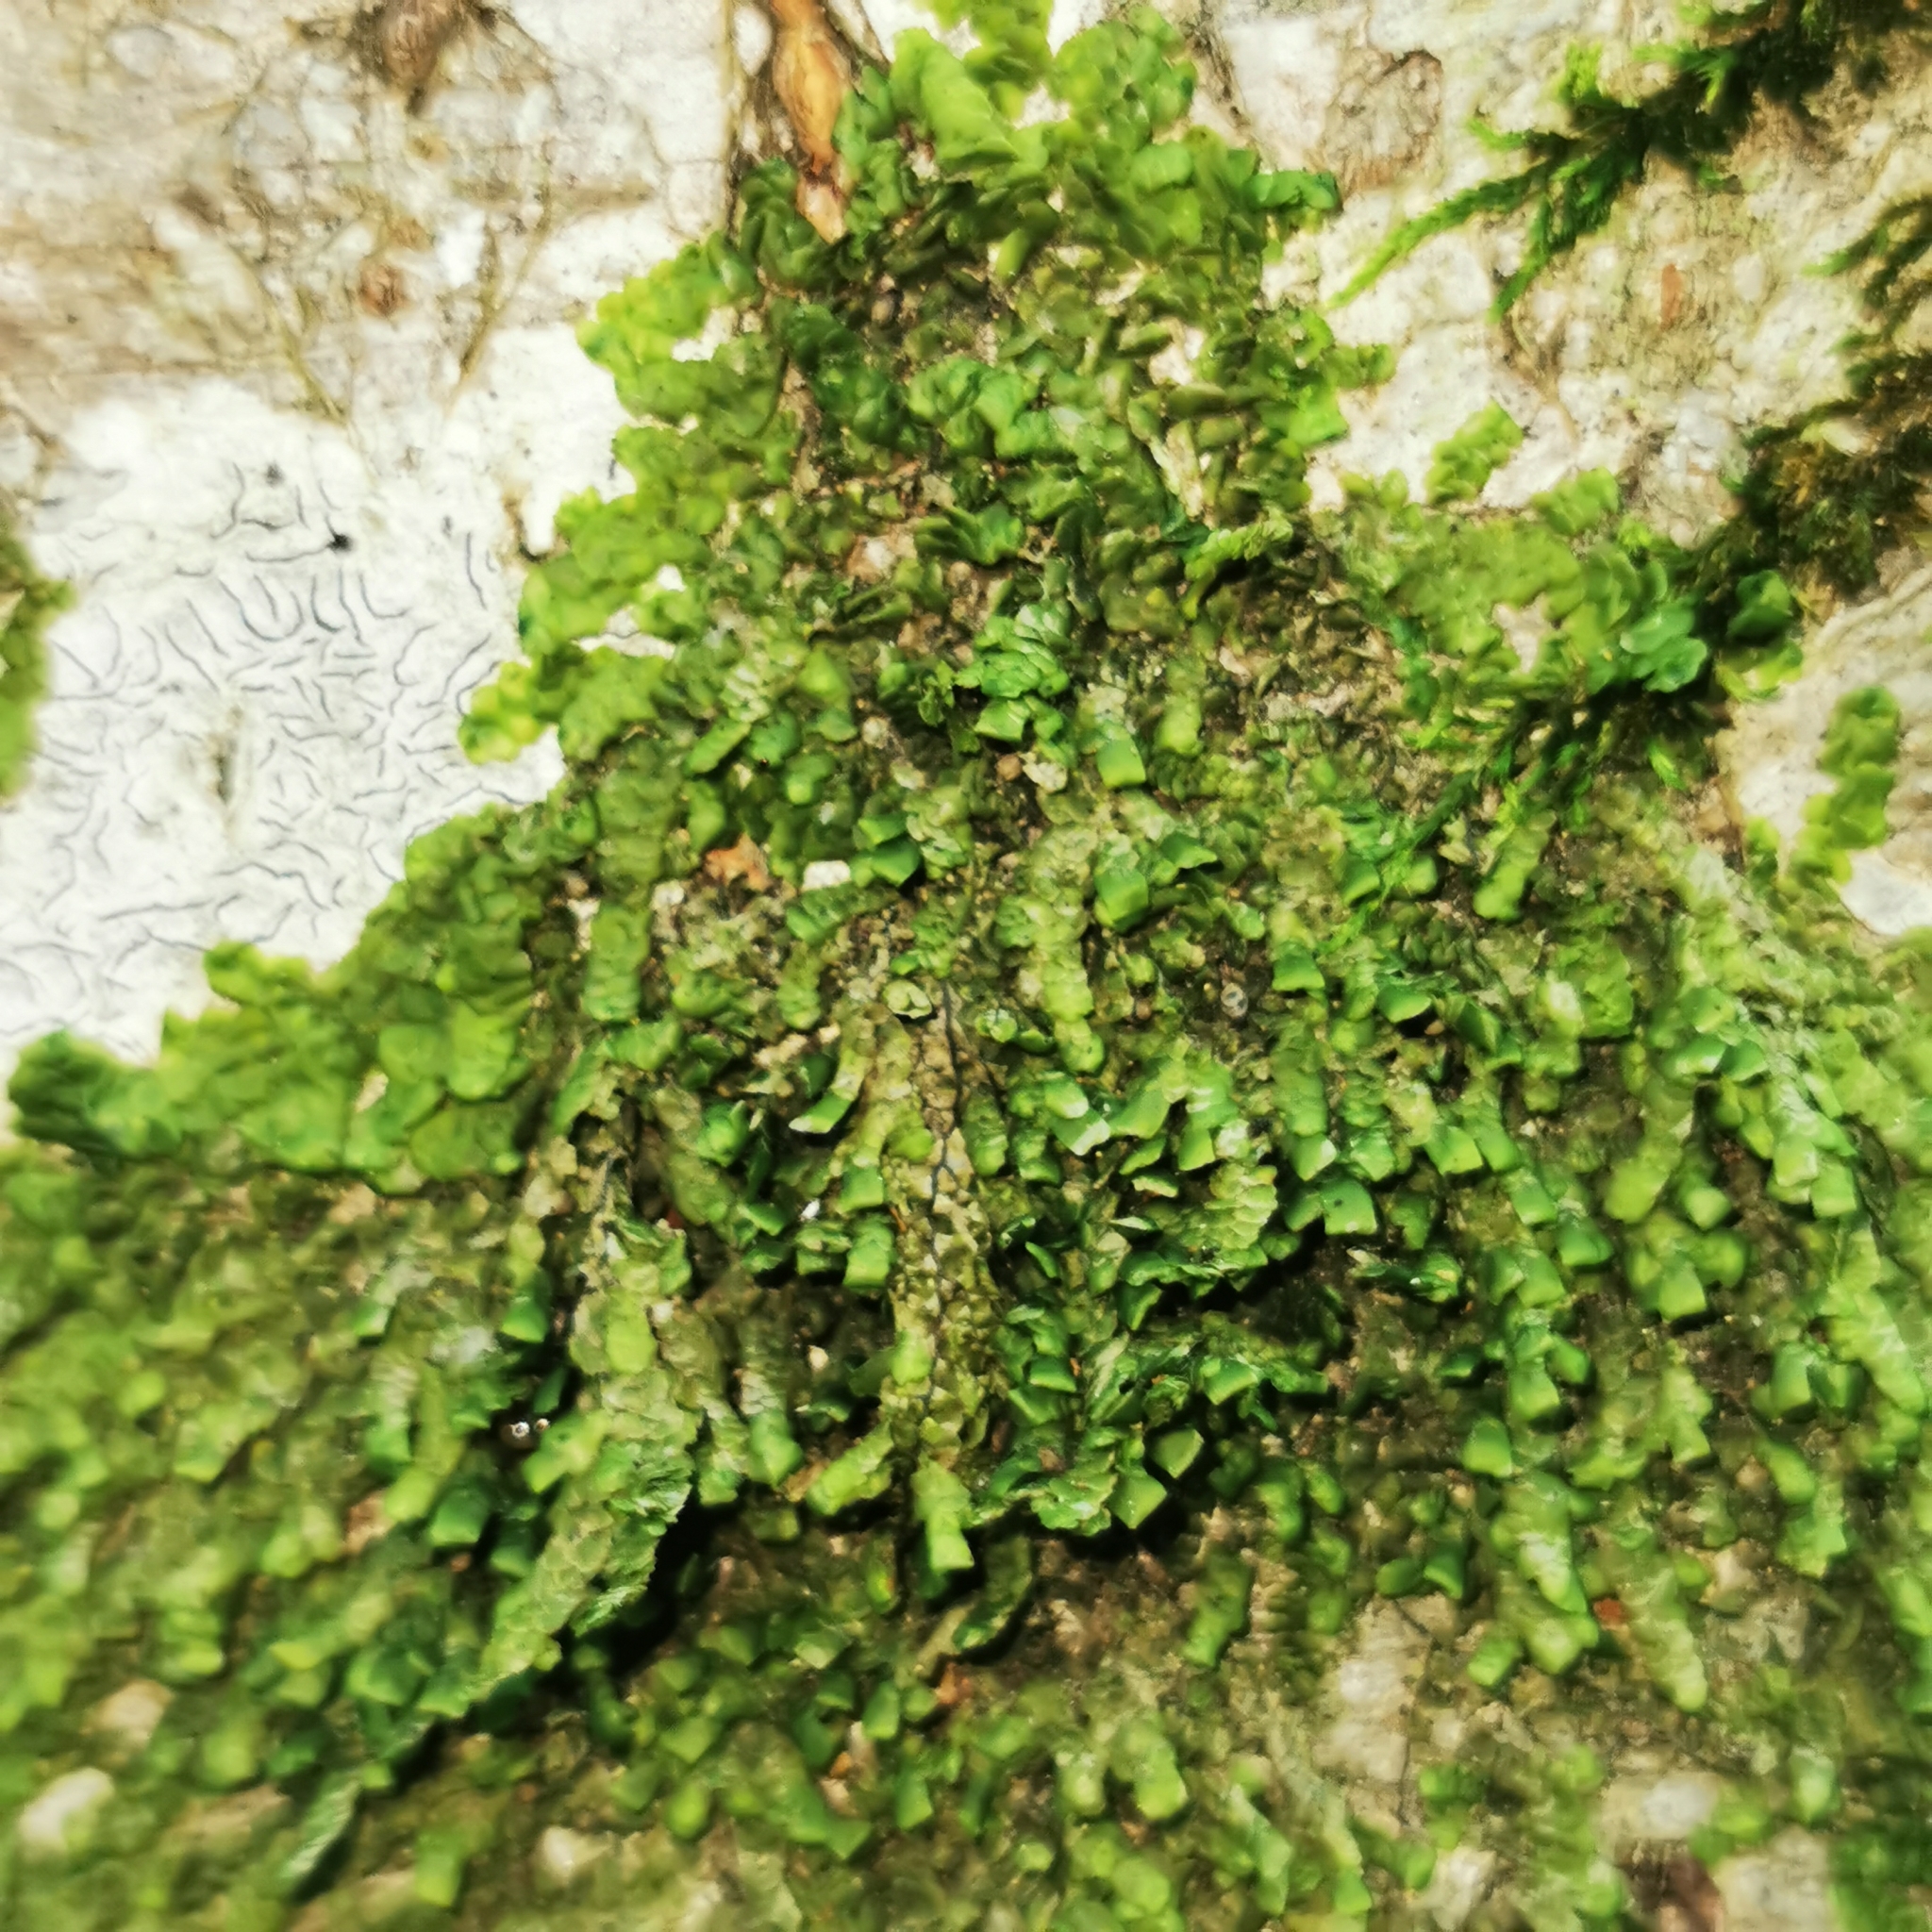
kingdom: Plantae
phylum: Marchantiophyta
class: Jungermanniopsida
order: Porellales
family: Radulaceae
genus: Radula
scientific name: Radula complanata
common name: Flat-leaved scalewort
